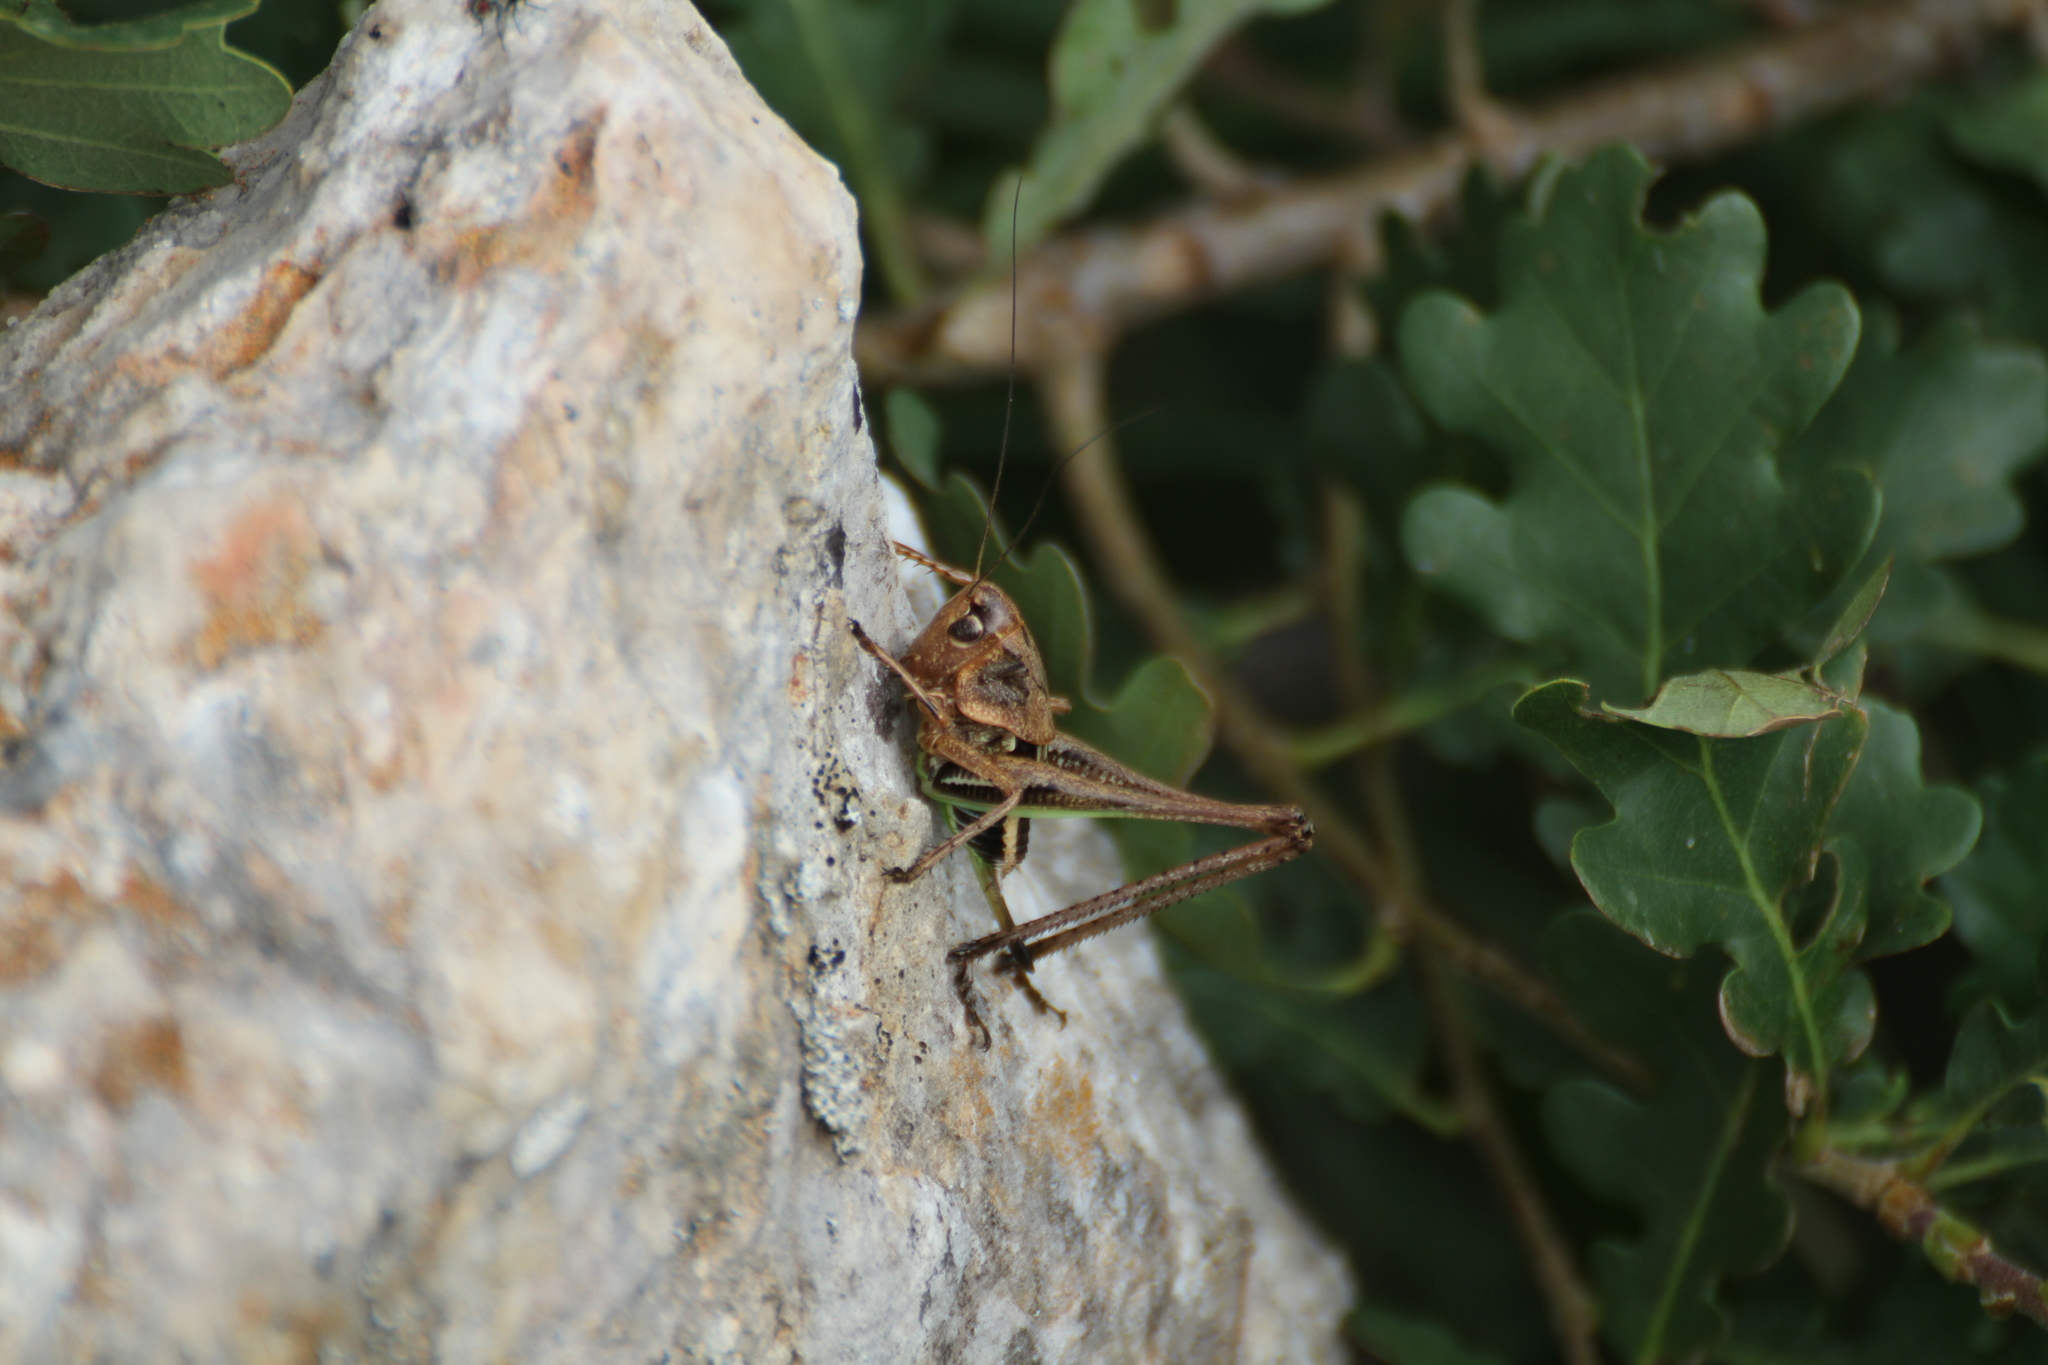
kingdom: Animalia
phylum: Arthropoda
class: Insecta
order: Orthoptera
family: Tettigoniidae
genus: Decticus
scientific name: Decticus albifrons
